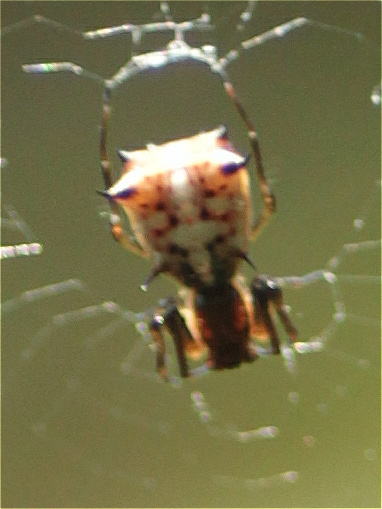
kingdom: Animalia
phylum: Arthropoda
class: Arachnida
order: Araneae
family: Araneidae
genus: Micrathena
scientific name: Micrathena woytkowskii
